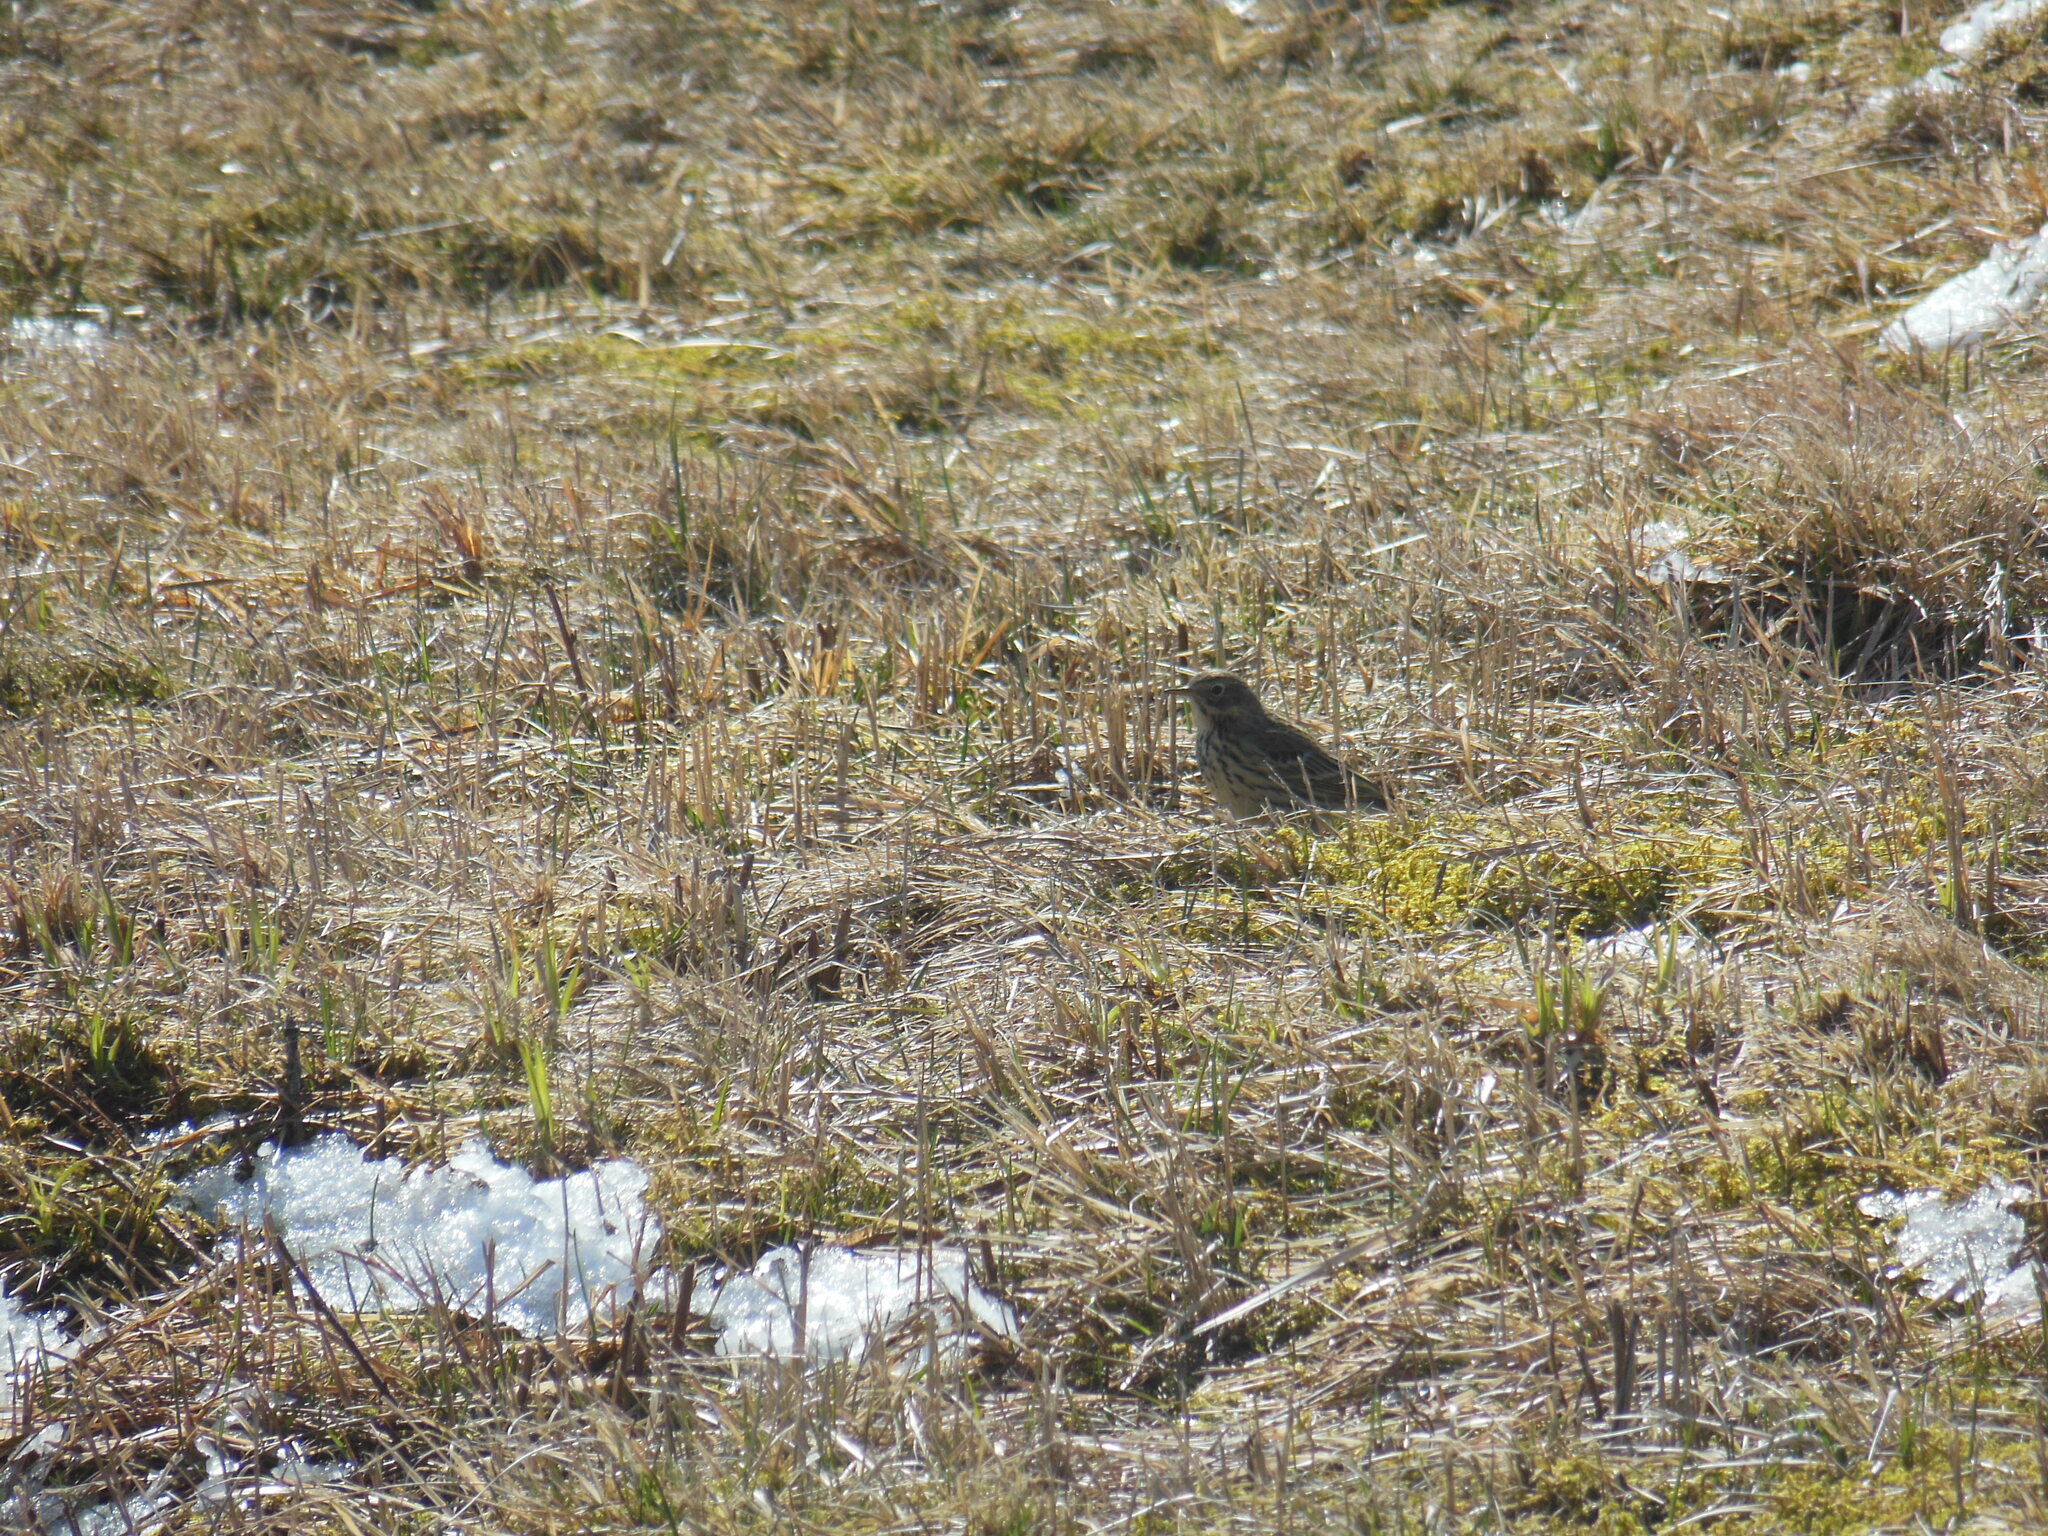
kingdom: Animalia
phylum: Chordata
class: Aves
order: Passeriformes
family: Motacillidae
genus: Anthus
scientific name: Anthus pratensis
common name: Meadow pipit
